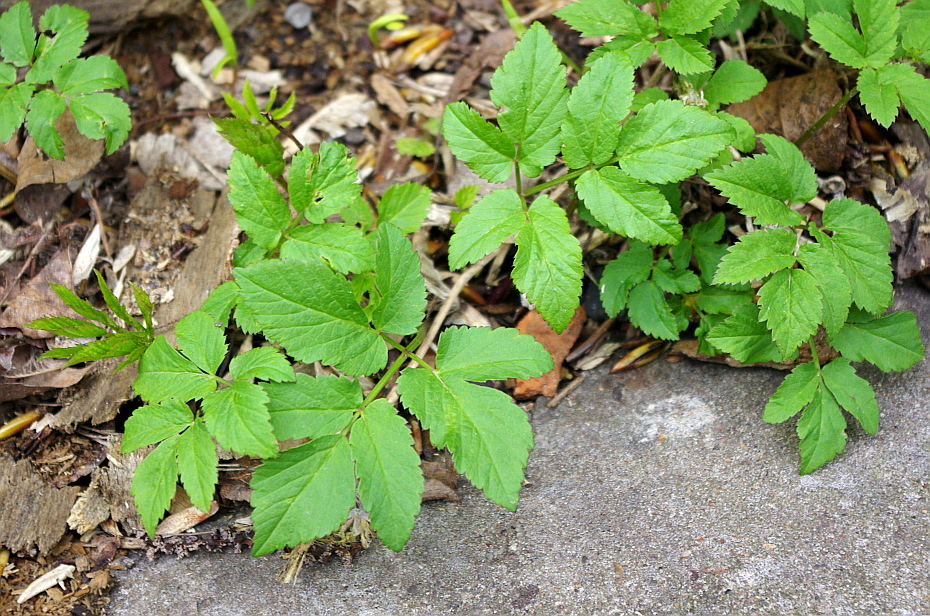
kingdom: Plantae
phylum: Tracheophyta
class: Magnoliopsida
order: Apiales
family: Apiaceae
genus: Aegopodium
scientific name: Aegopodium podagraria
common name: Ground-elder
